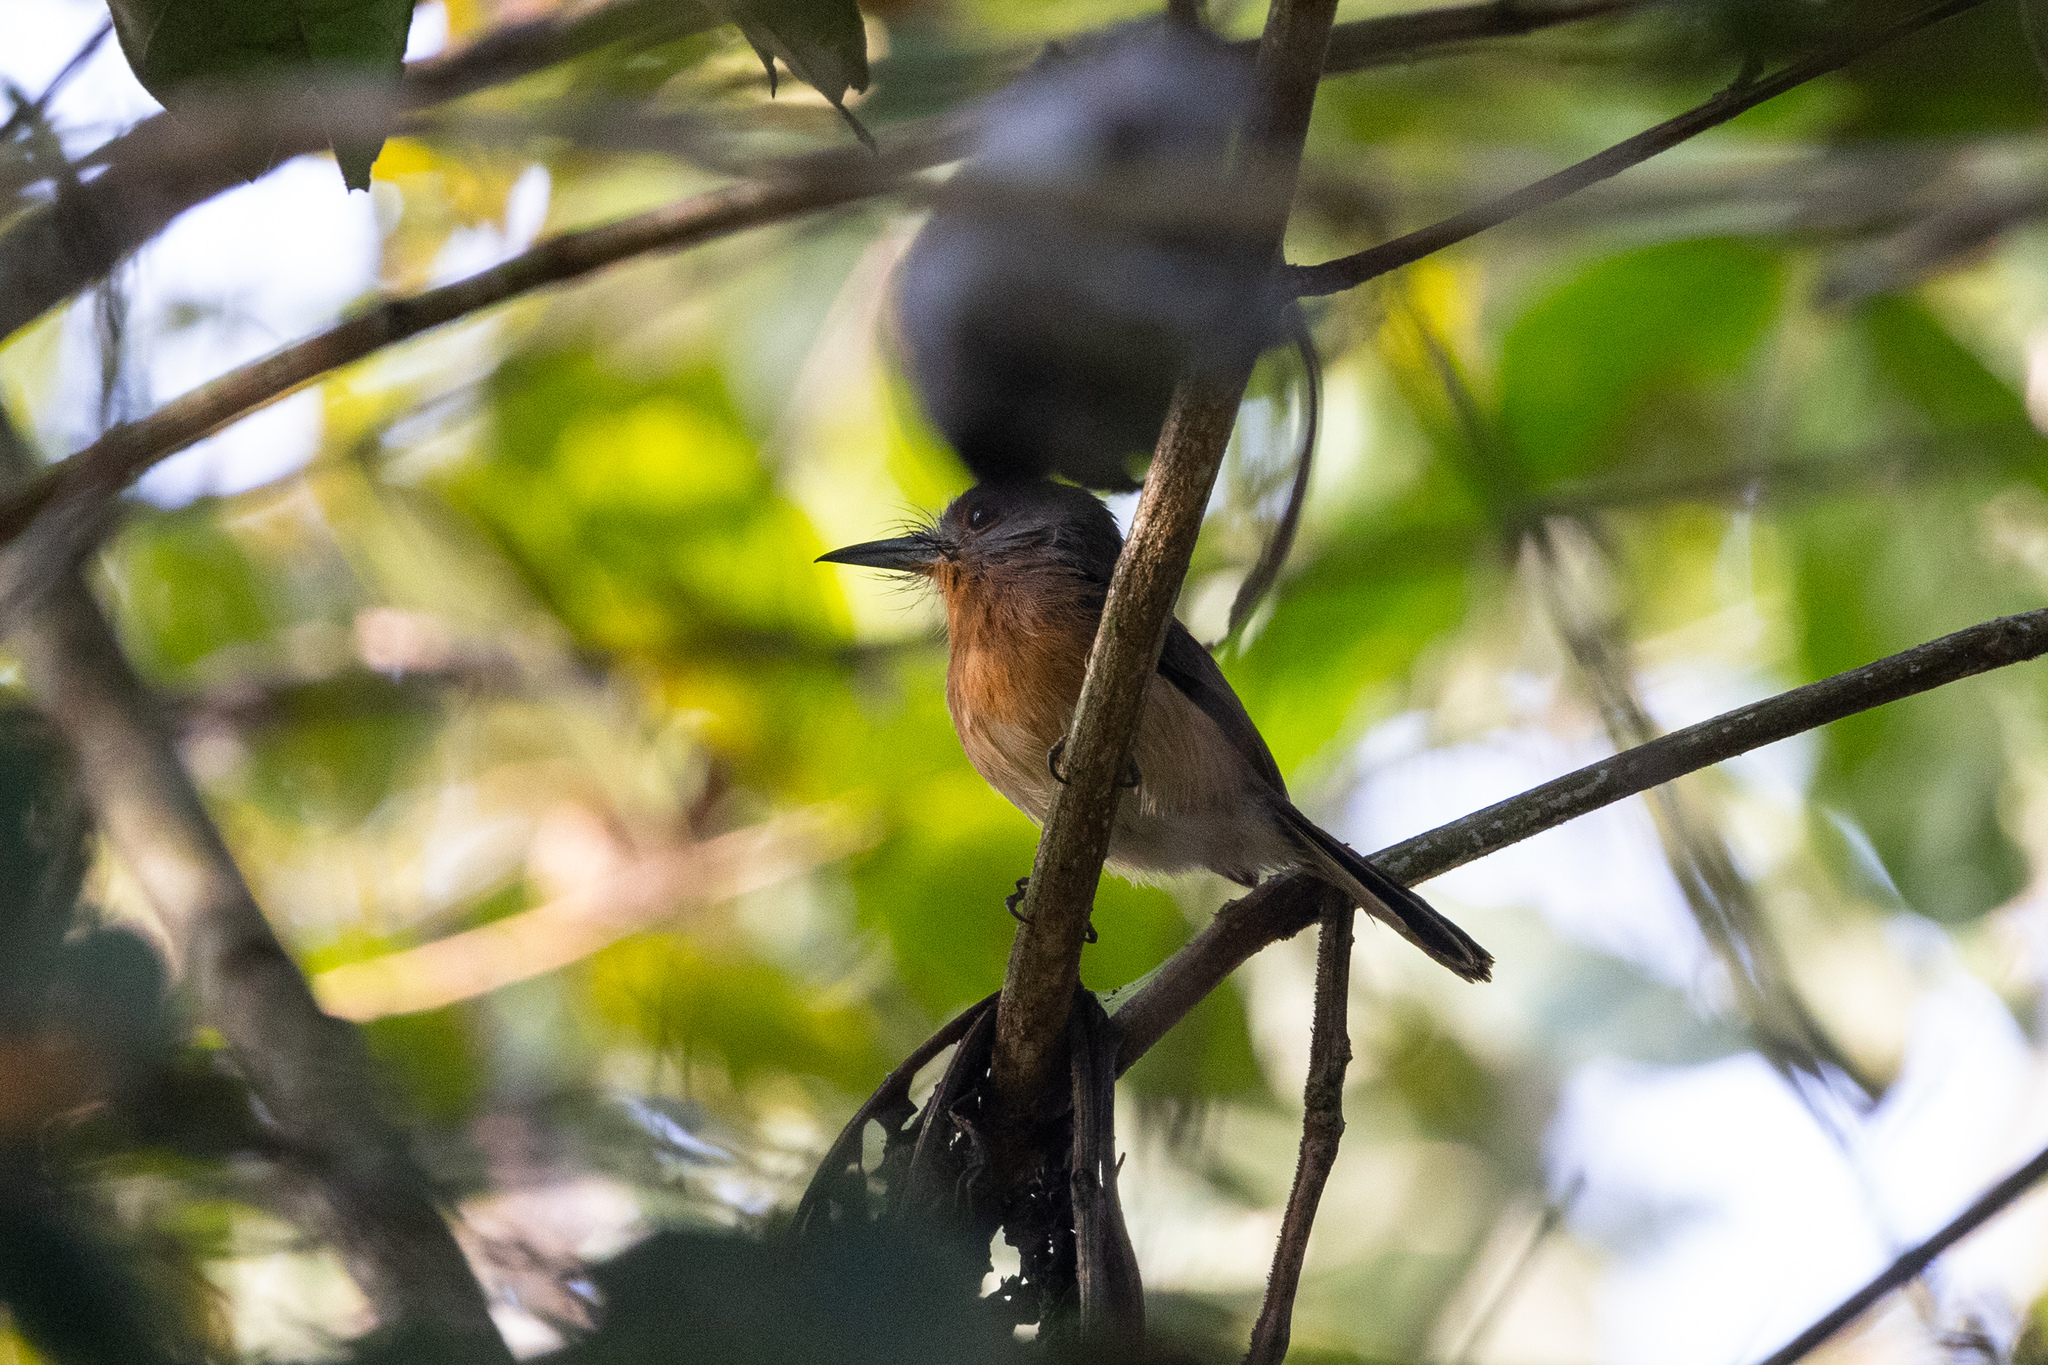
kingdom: Animalia
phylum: Chordata
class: Aves
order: Piciformes
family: Bucconidae
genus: Nonnula
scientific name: Nonnula frontalis
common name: Grey-cheeked nunlet
